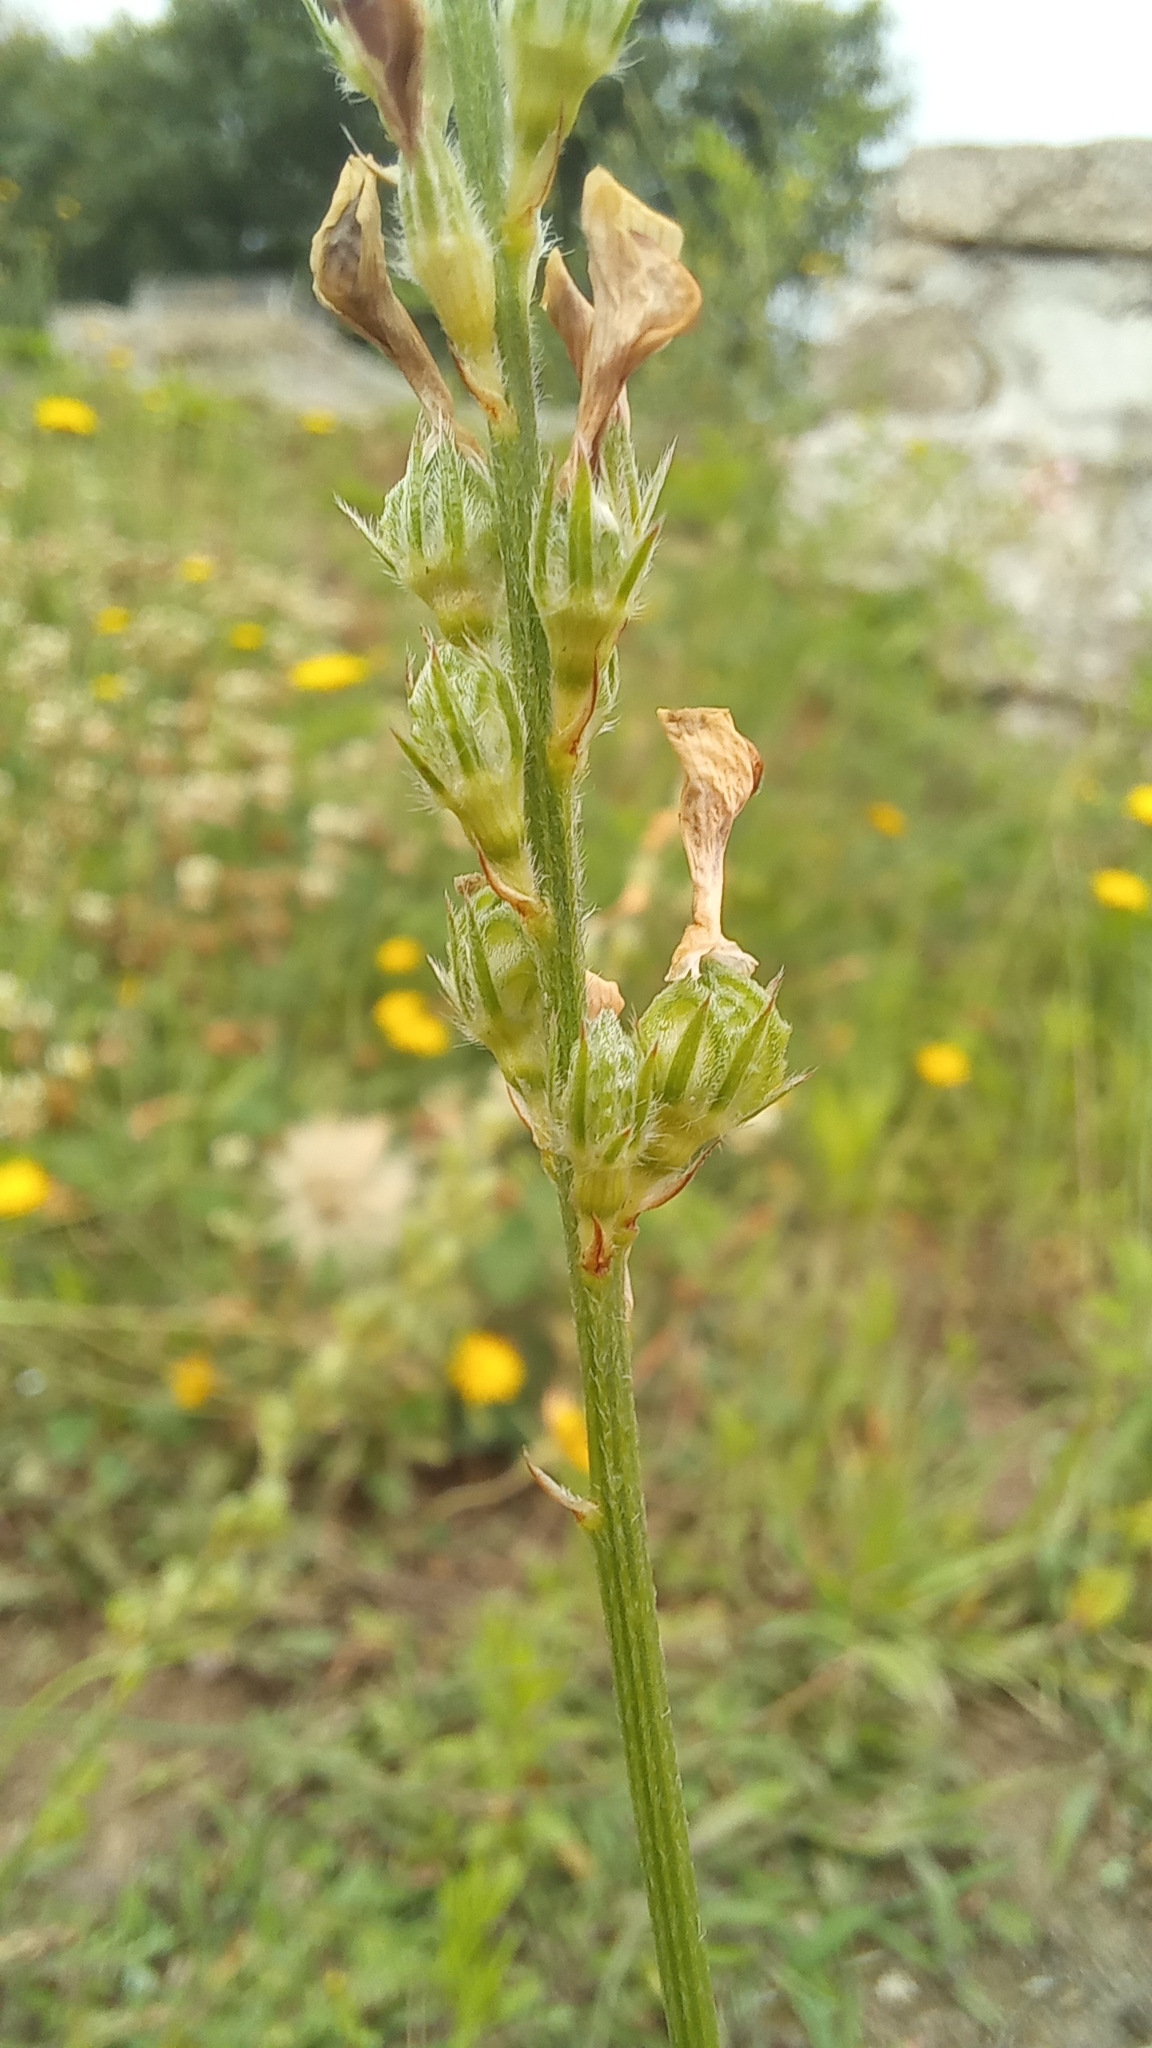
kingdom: Plantae
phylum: Tracheophyta
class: Magnoliopsida
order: Fabales
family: Fabaceae
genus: Onobrychis
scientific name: Onobrychis viciifolia
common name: Sainfoin
